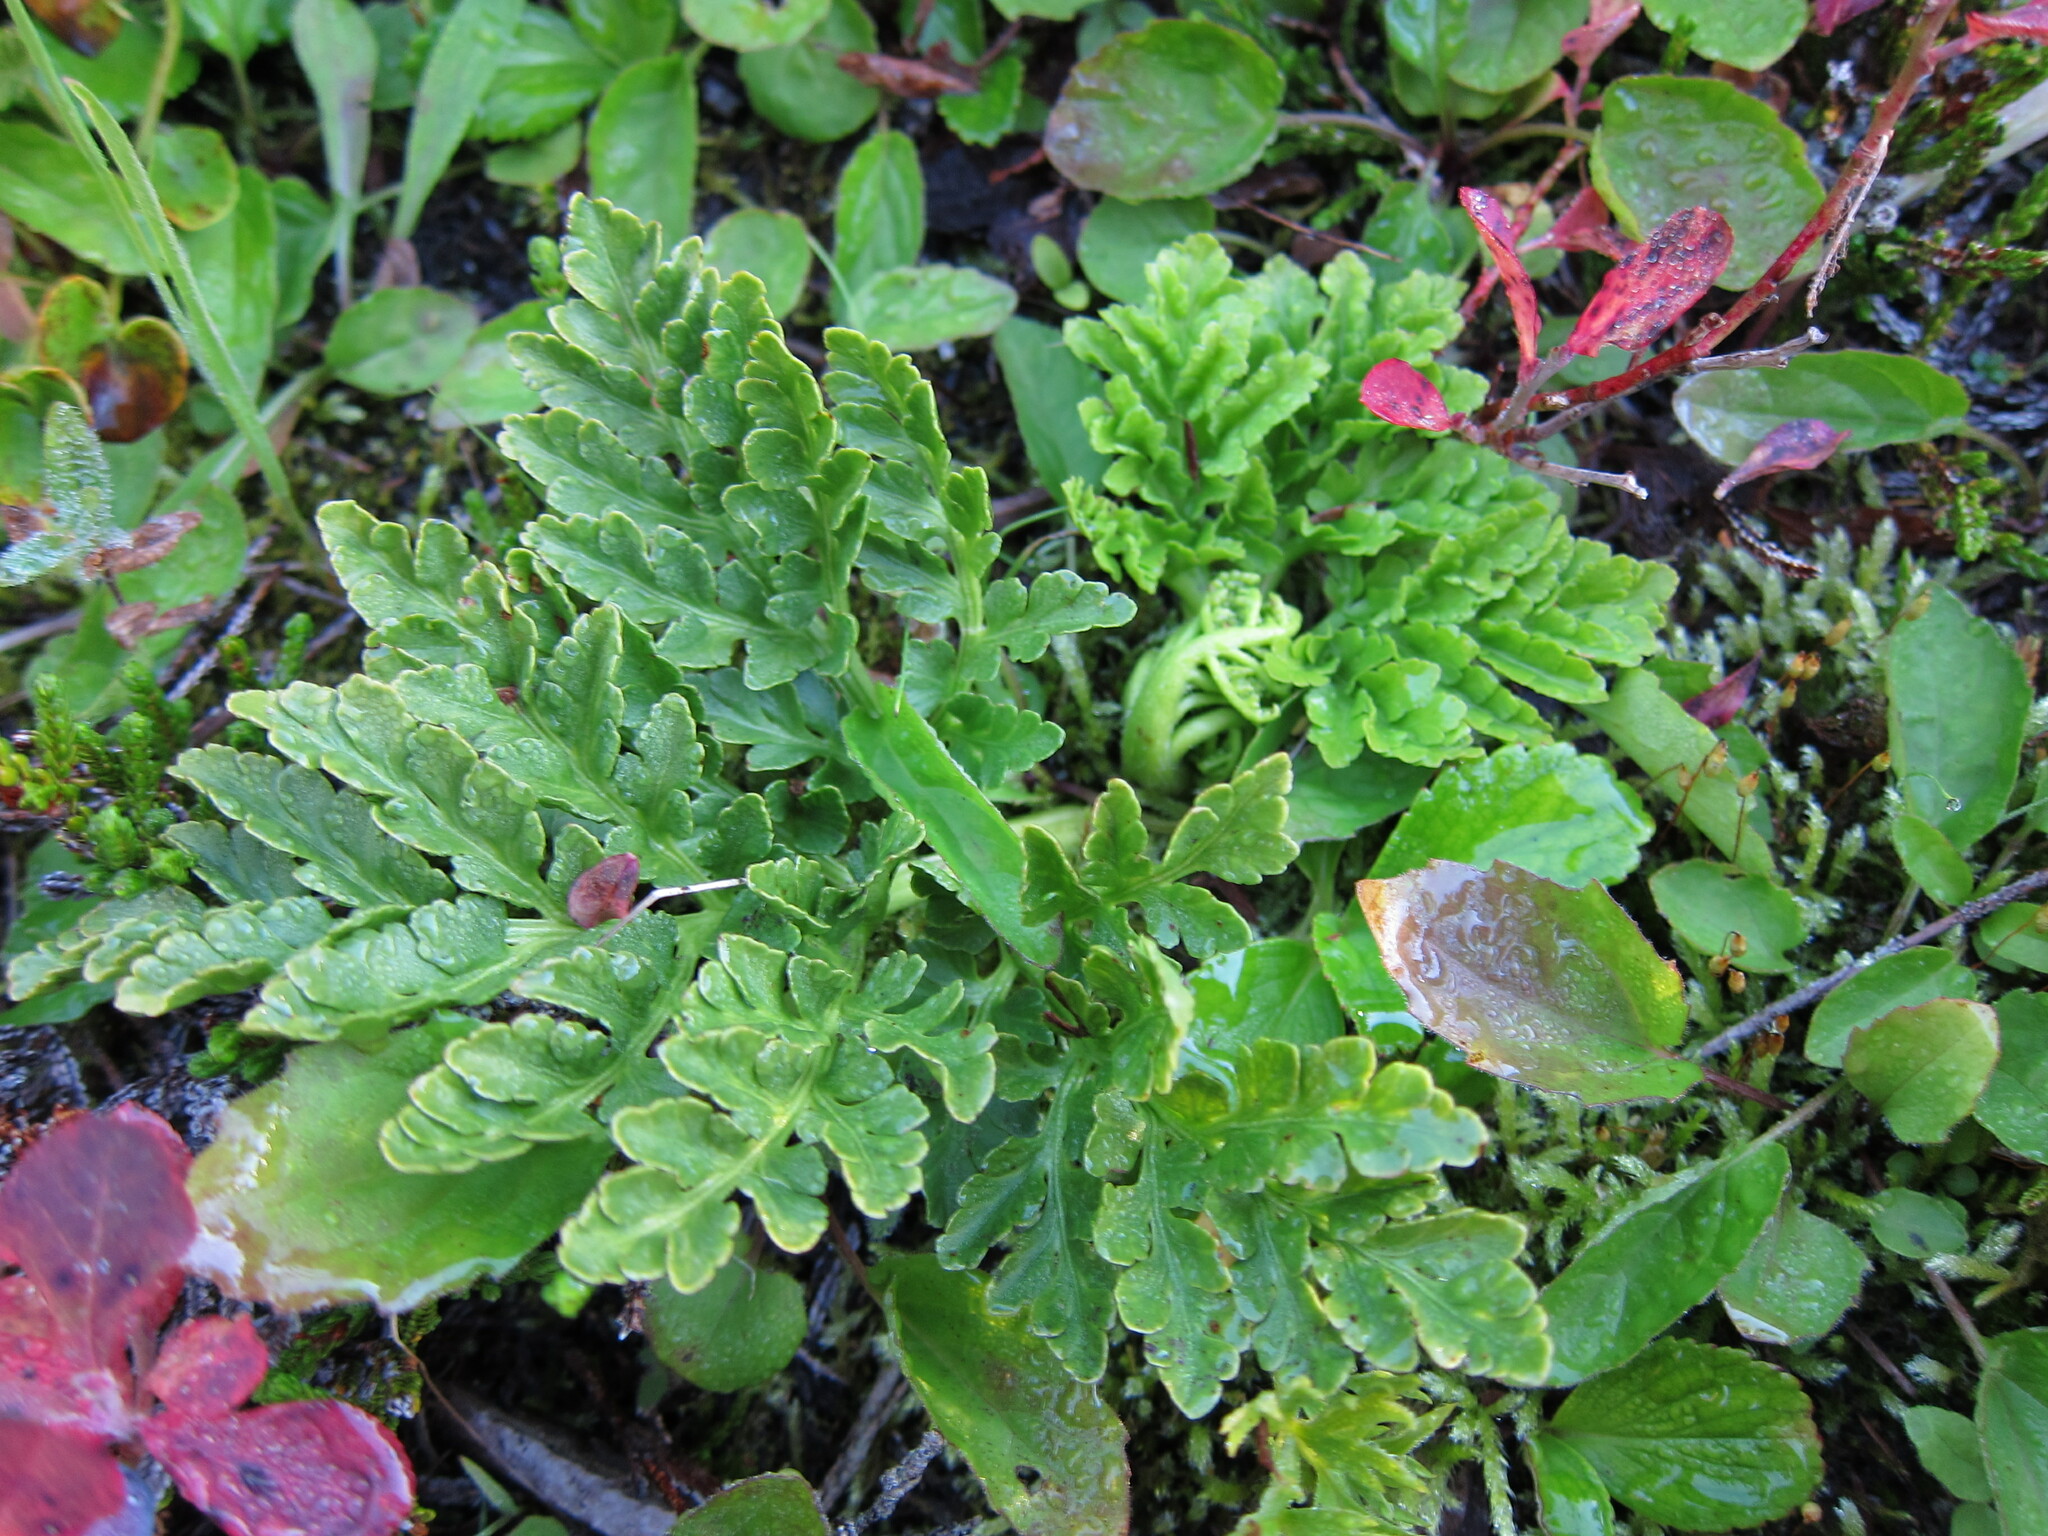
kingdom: Plantae
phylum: Tracheophyta
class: Polypodiopsida
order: Ophioglossales
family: Ophioglossaceae
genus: Sceptridium
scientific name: Sceptridium multifidum
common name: Leathery grape fern
